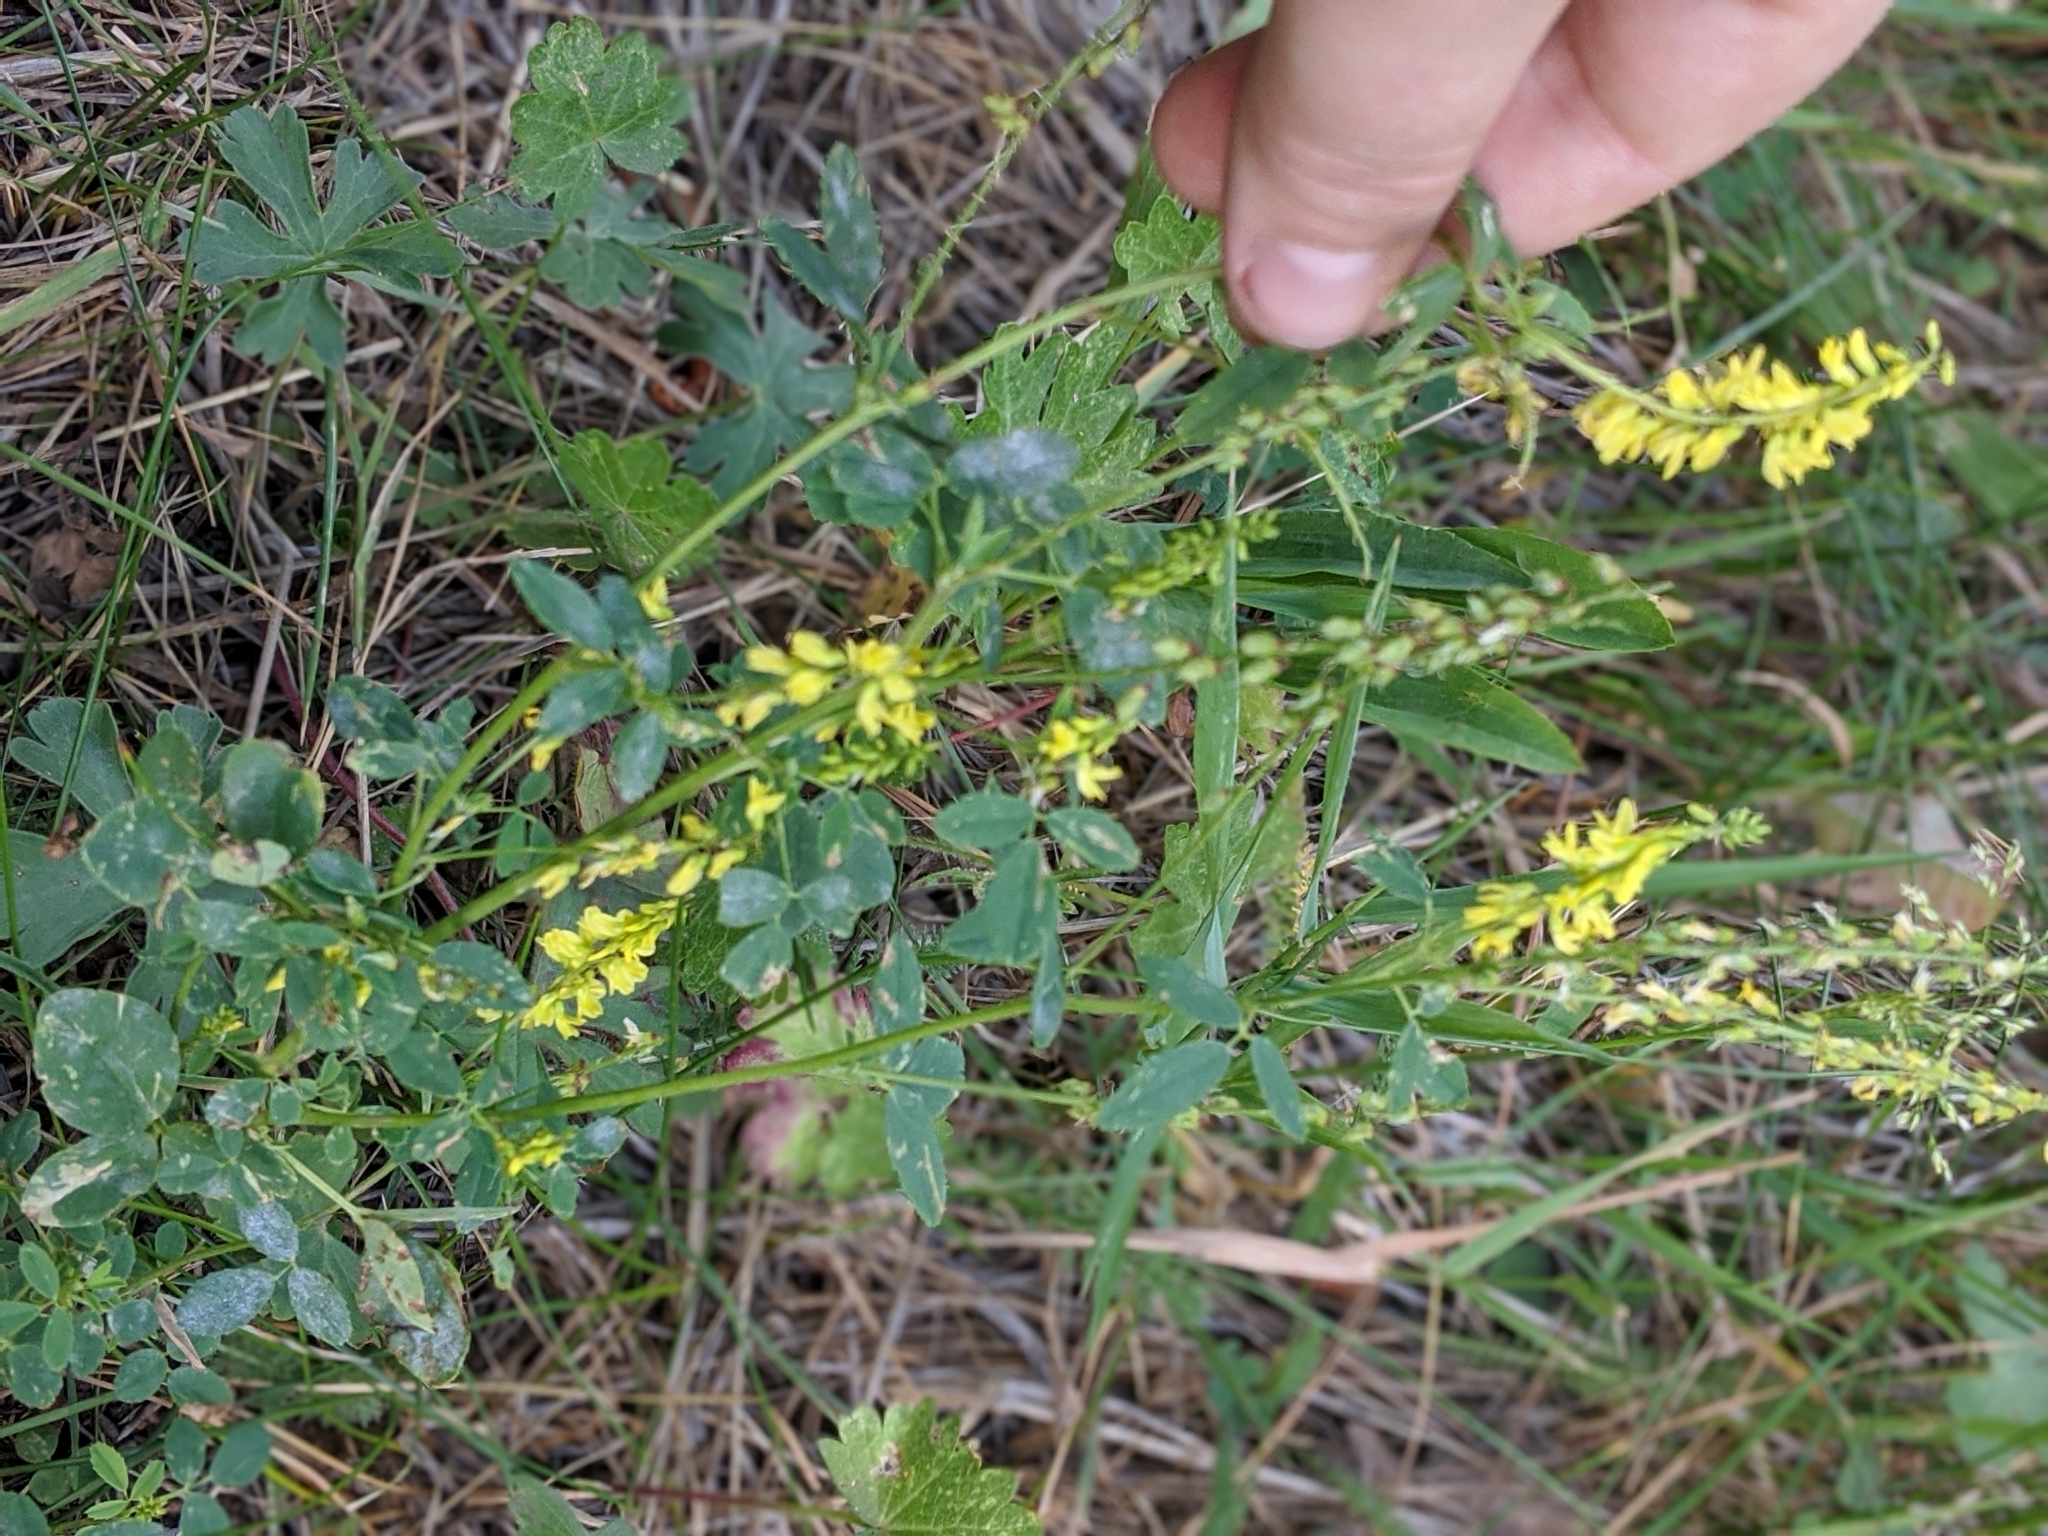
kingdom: Plantae
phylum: Tracheophyta
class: Magnoliopsida
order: Fabales
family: Fabaceae
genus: Melilotus
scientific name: Melilotus officinalis
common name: Sweetclover
